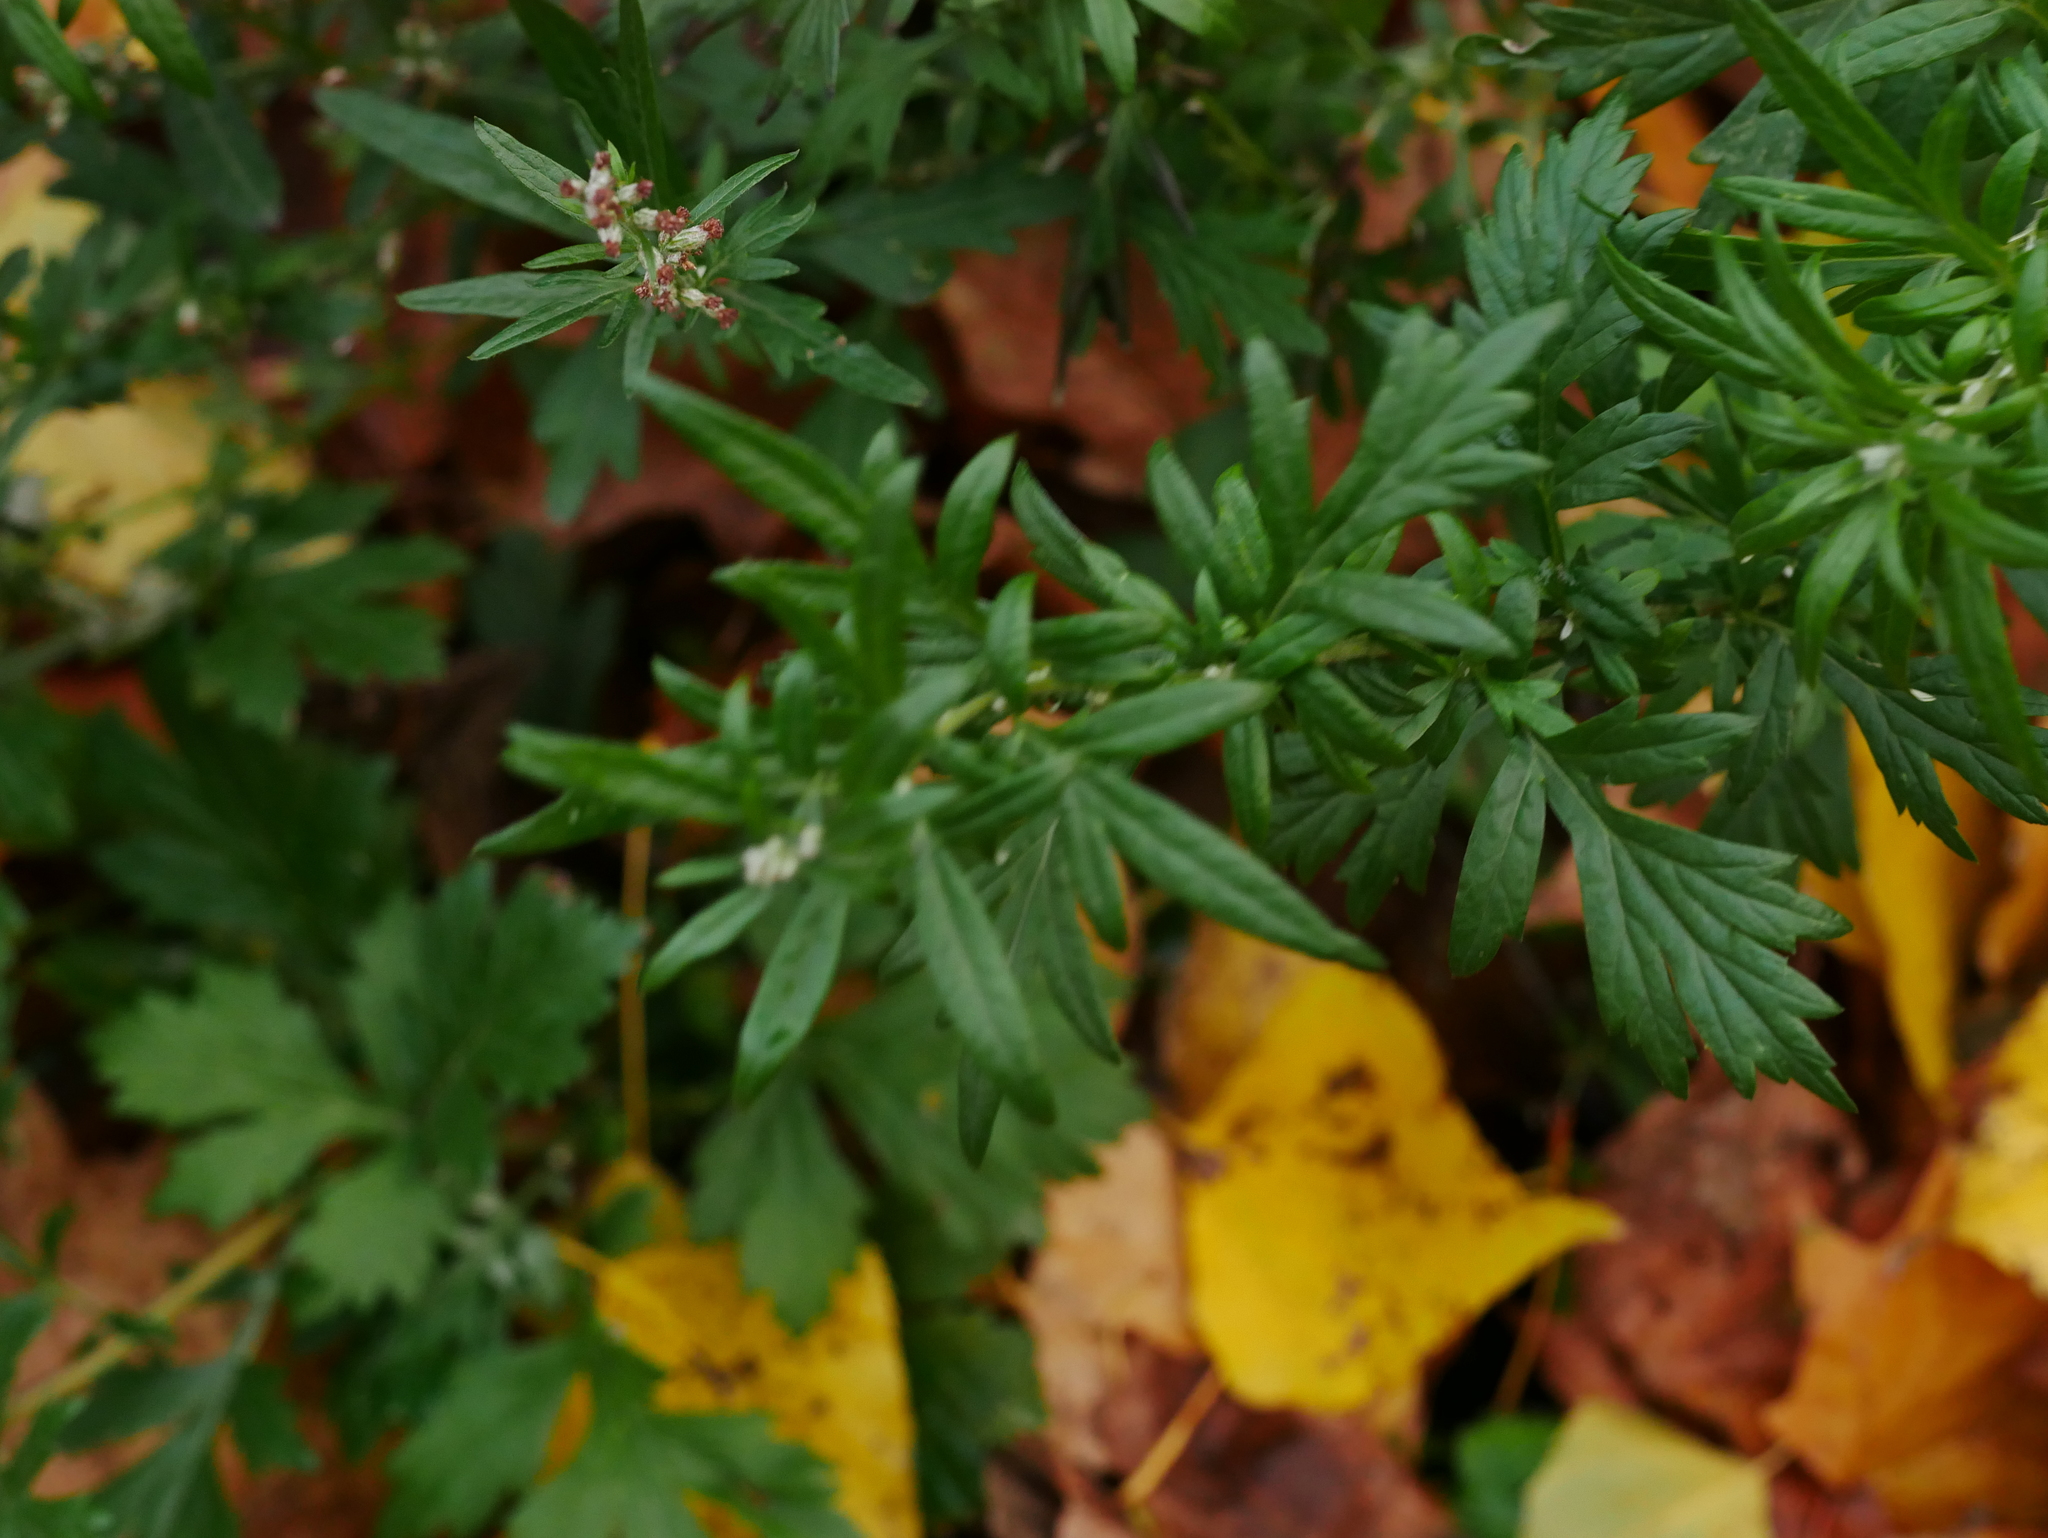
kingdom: Plantae
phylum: Tracheophyta
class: Magnoliopsida
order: Asterales
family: Asteraceae
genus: Artemisia
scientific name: Artemisia vulgaris
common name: Mugwort
